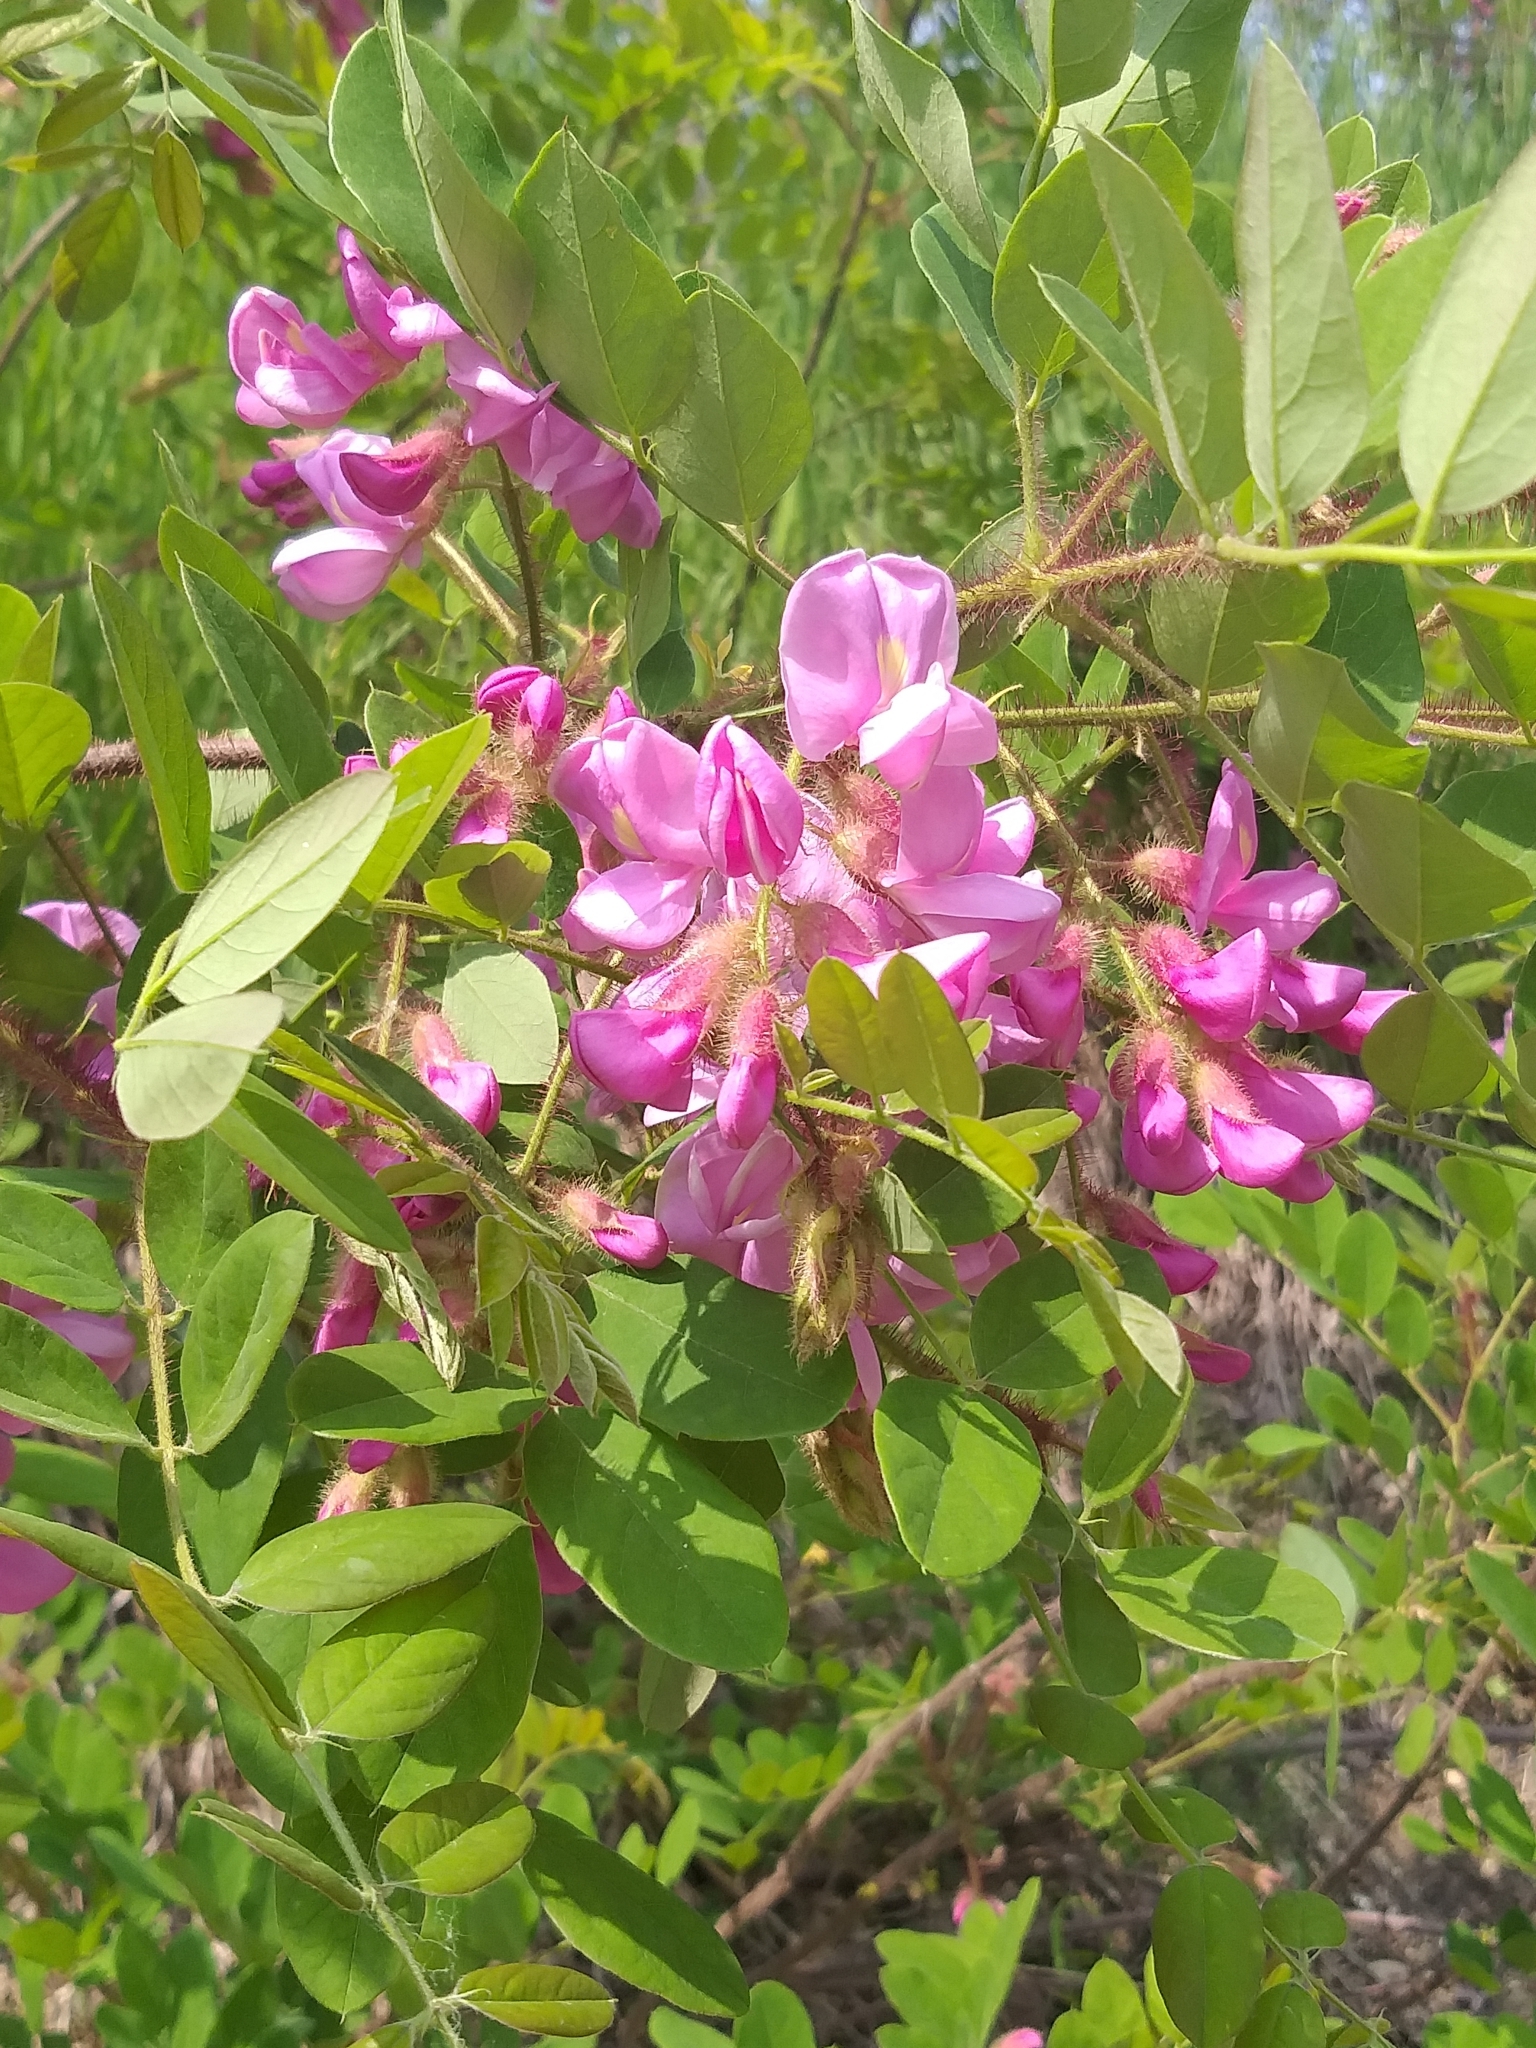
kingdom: Plantae
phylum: Tracheophyta
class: Magnoliopsida
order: Fabales
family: Fabaceae
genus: Robinia
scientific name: Robinia hispida
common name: Bristly locust
